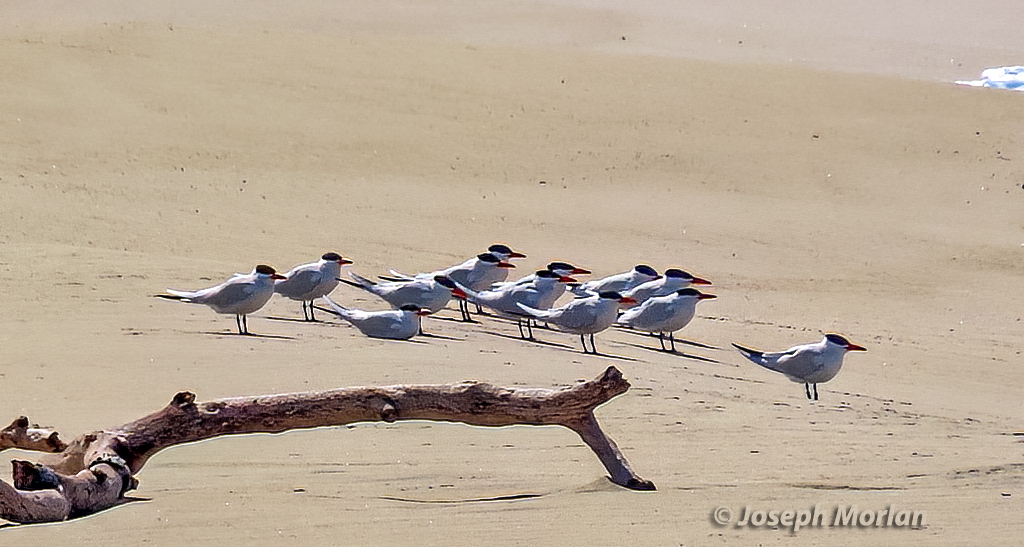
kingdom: Animalia
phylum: Chordata
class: Aves
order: Charadriiformes
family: Laridae
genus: Hydroprogne
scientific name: Hydroprogne caspia
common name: Caspian tern
